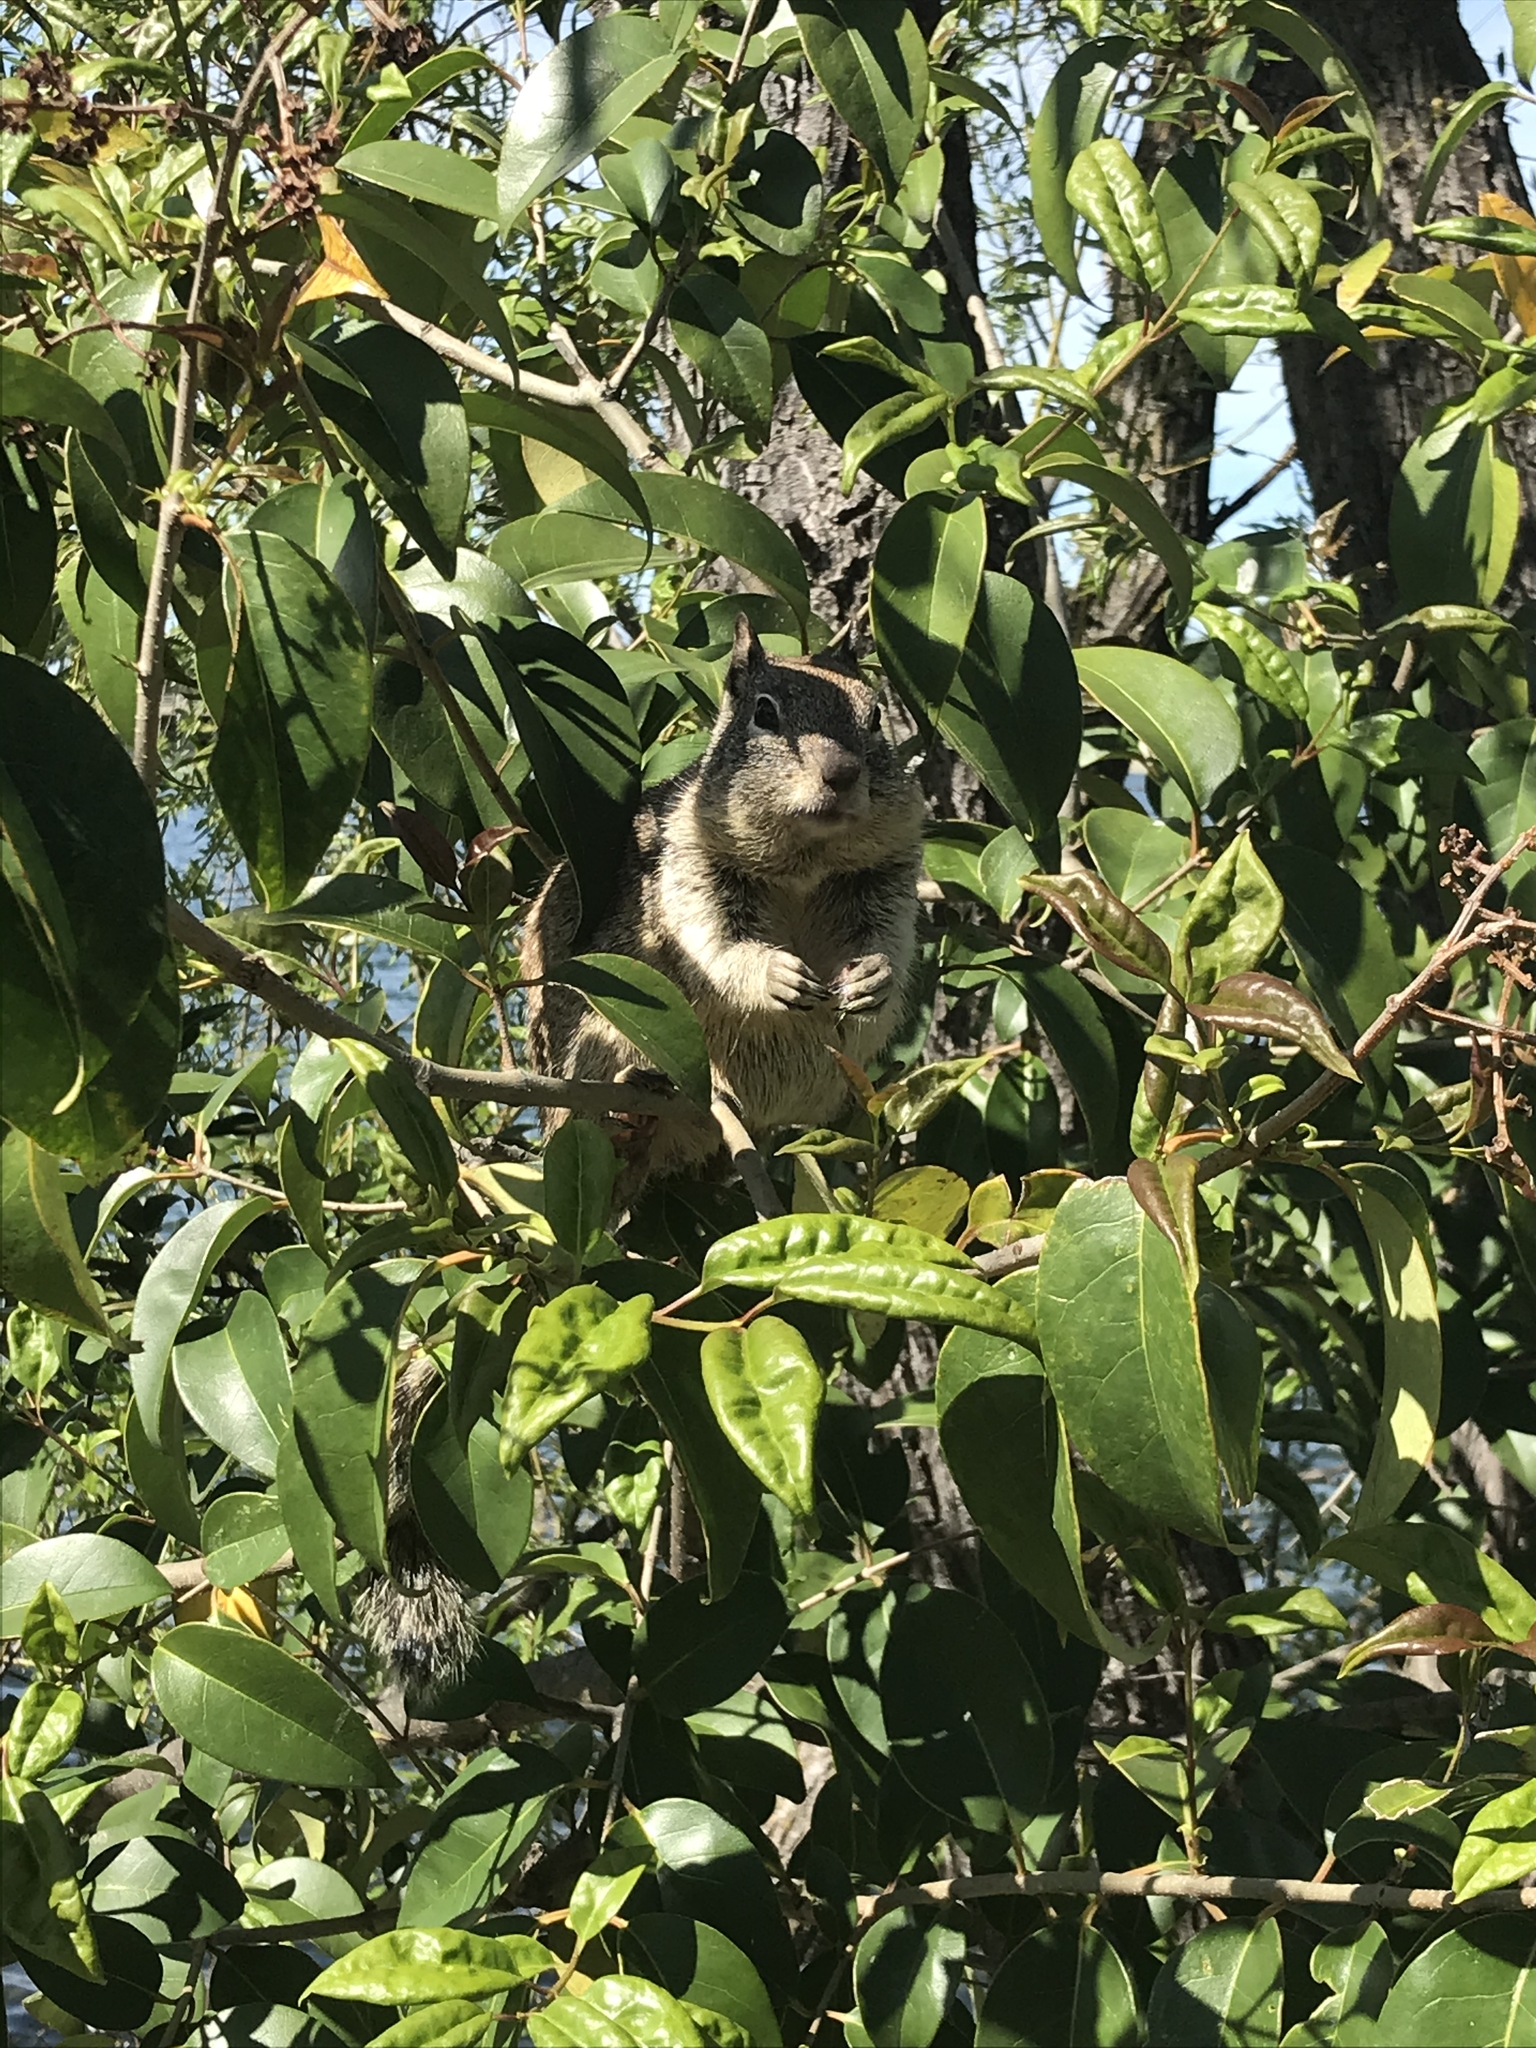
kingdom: Animalia
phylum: Chordata
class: Mammalia
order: Rodentia
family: Sciuridae
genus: Otospermophilus
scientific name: Otospermophilus beecheyi
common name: California ground squirrel
